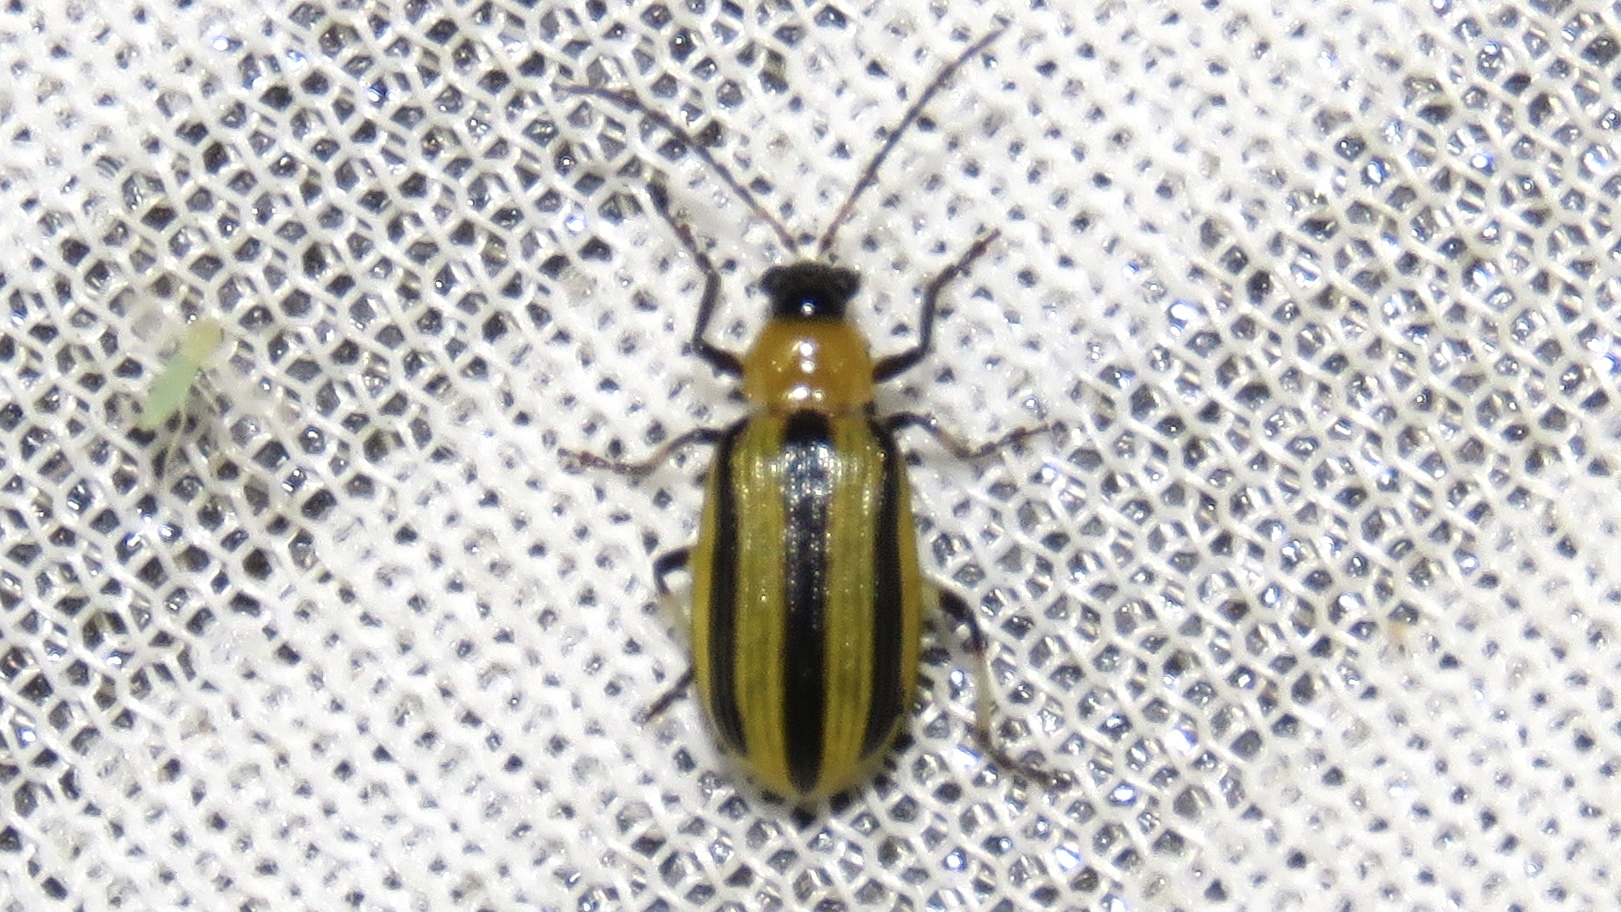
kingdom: Animalia
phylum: Arthropoda
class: Insecta
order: Coleoptera
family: Chrysomelidae
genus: Acalymma
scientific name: Acalymma vittatum
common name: Striped cucumber beetle
